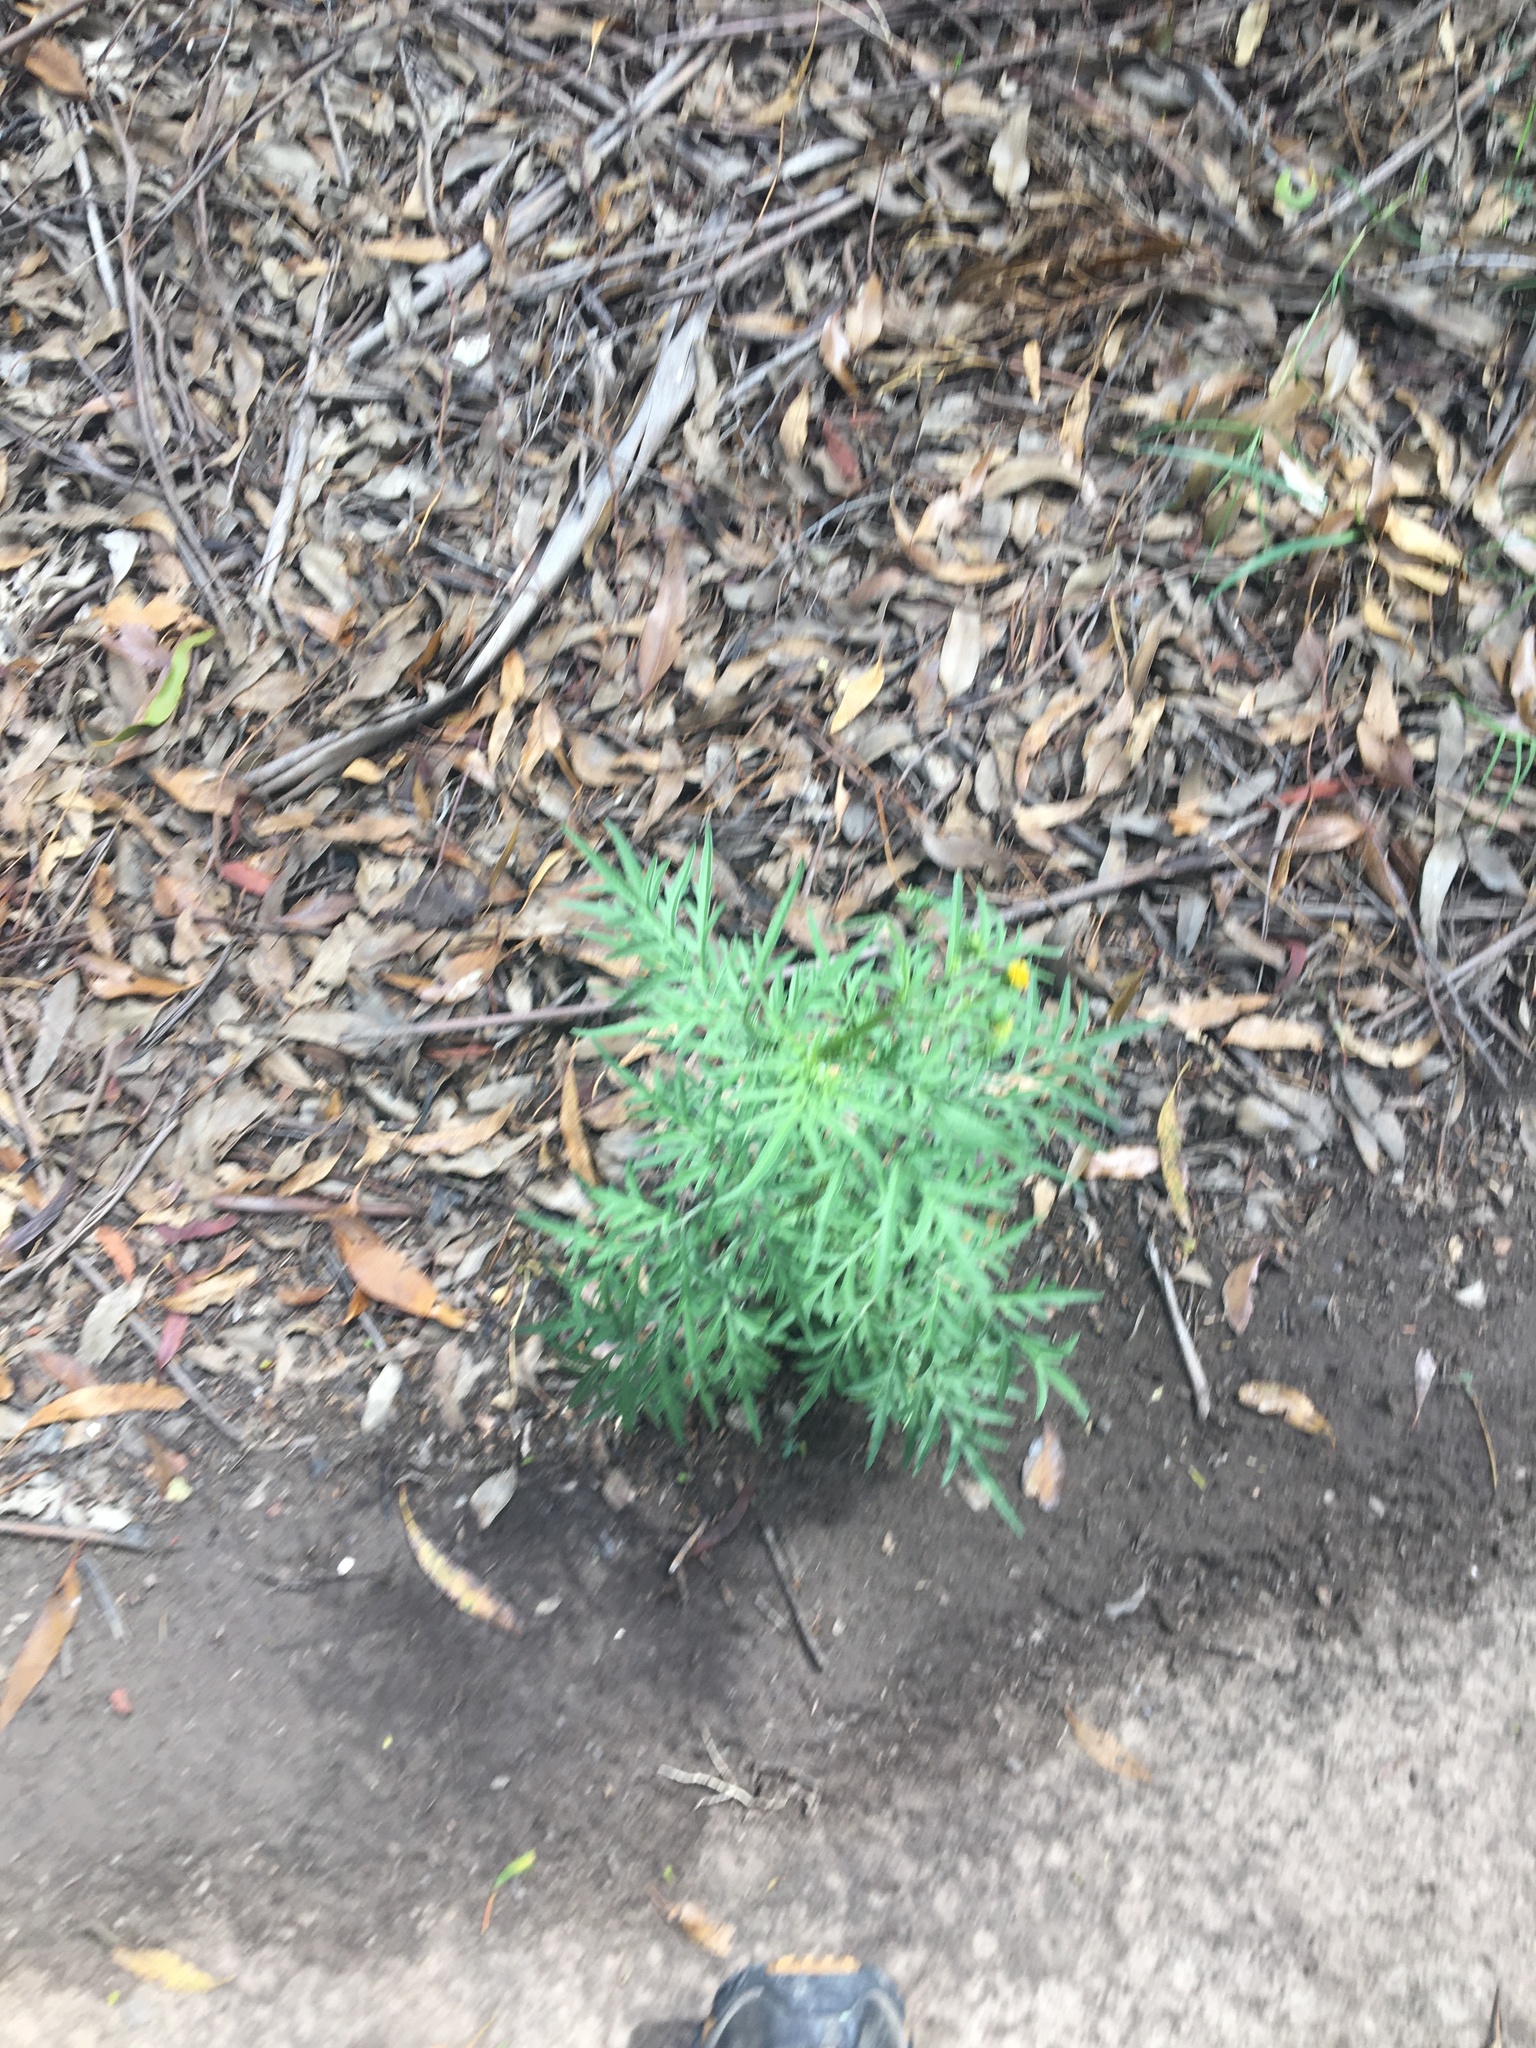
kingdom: Plantae
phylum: Tracheophyta
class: Magnoliopsida
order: Asterales
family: Asteraceae
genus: Bidens
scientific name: Bidens subalternans
